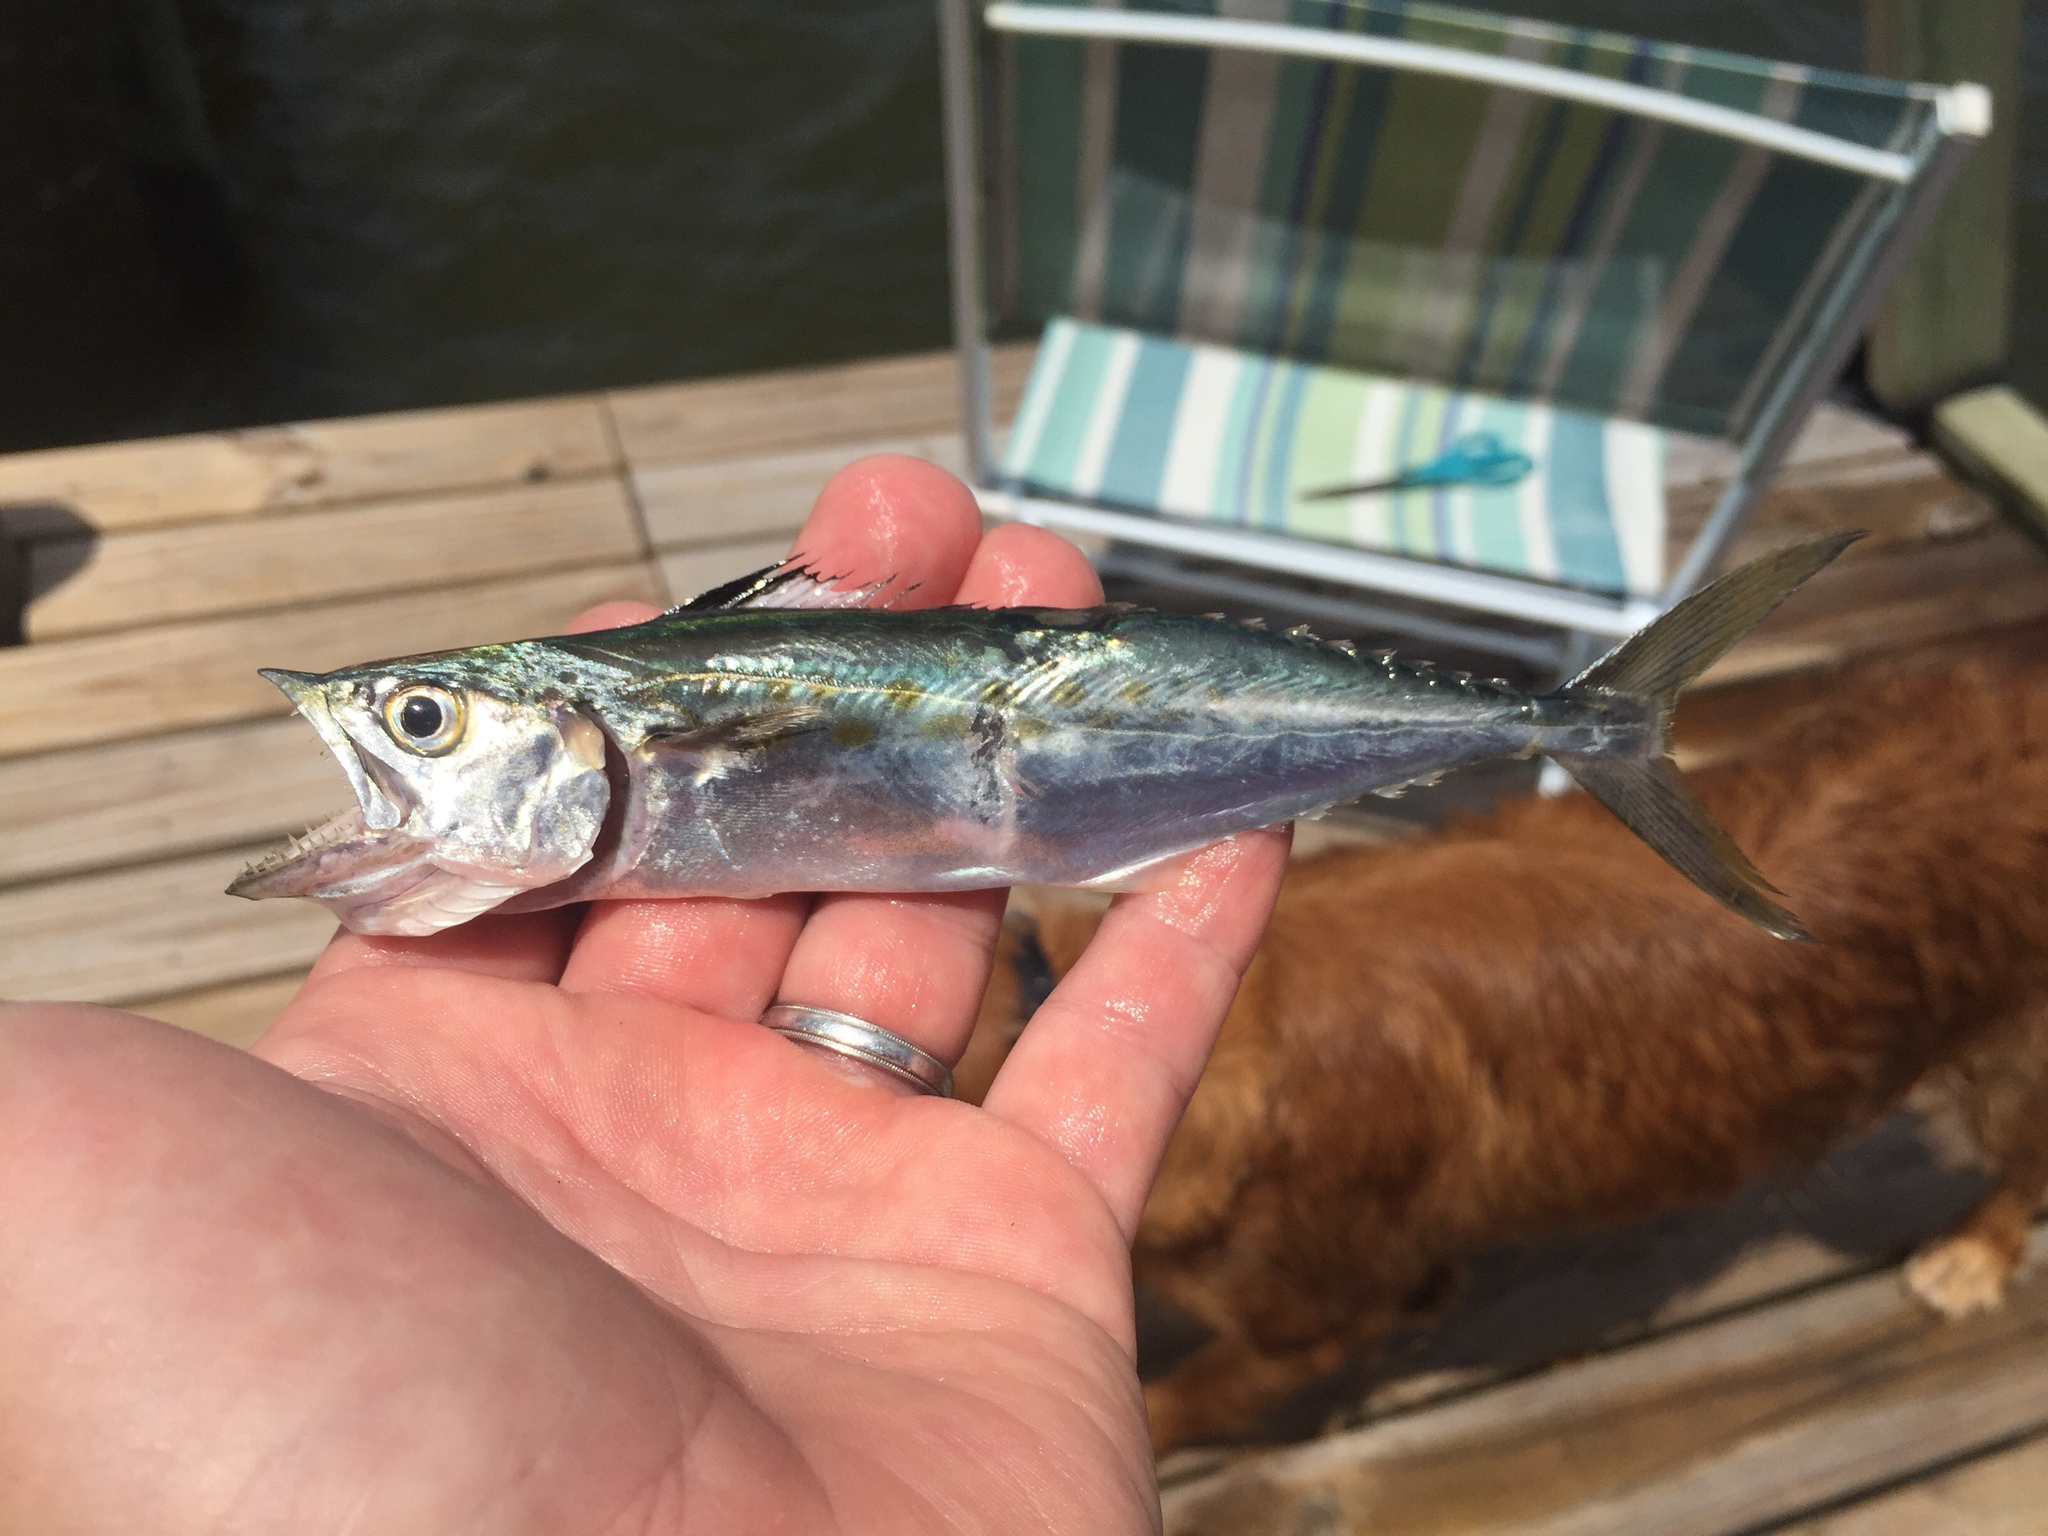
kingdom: Animalia
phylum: Chordata
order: Perciformes
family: Scombridae
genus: Scomberomorus
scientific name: Scomberomorus maculatus
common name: Spanish mackerel
